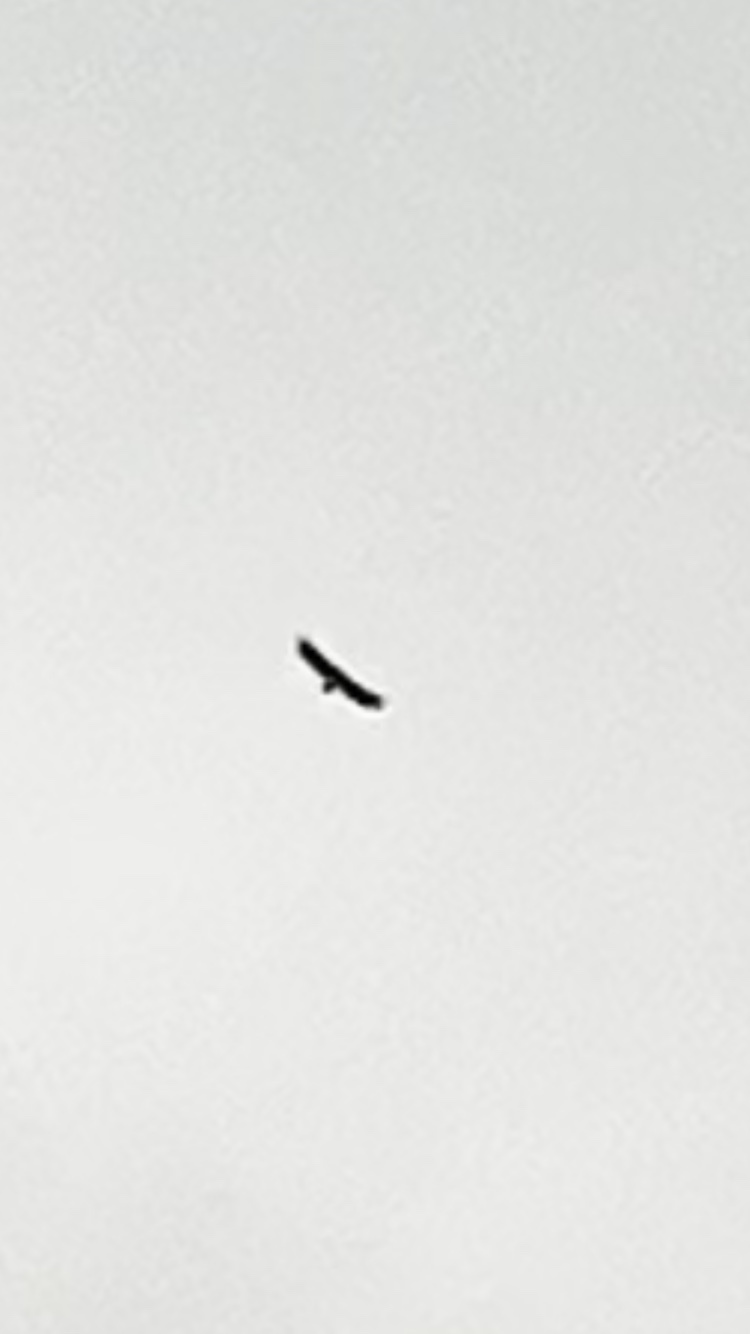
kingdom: Animalia
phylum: Chordata
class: Aves
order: Accipitriformes
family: Accipitridae
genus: Haliaeetus
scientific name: Haliaeetus albicilla
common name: White-tailed eagle
